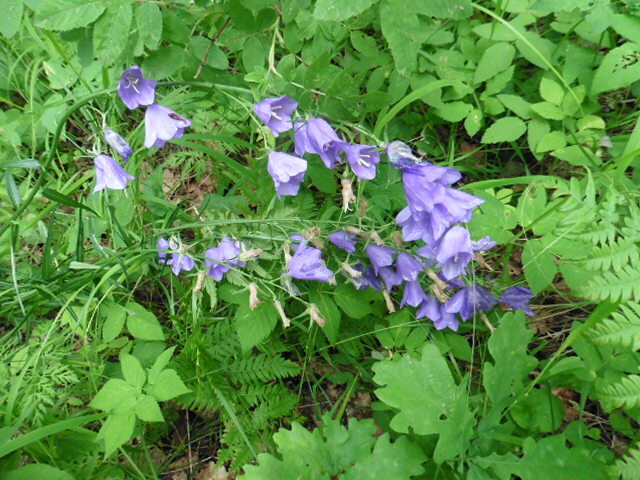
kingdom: Plantae
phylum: Tracheophyta
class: Magnoliopsida
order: Asterales
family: Campanulaceae
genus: Campanula
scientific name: Campanula persicifolia
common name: Peach-leaved bellflower
